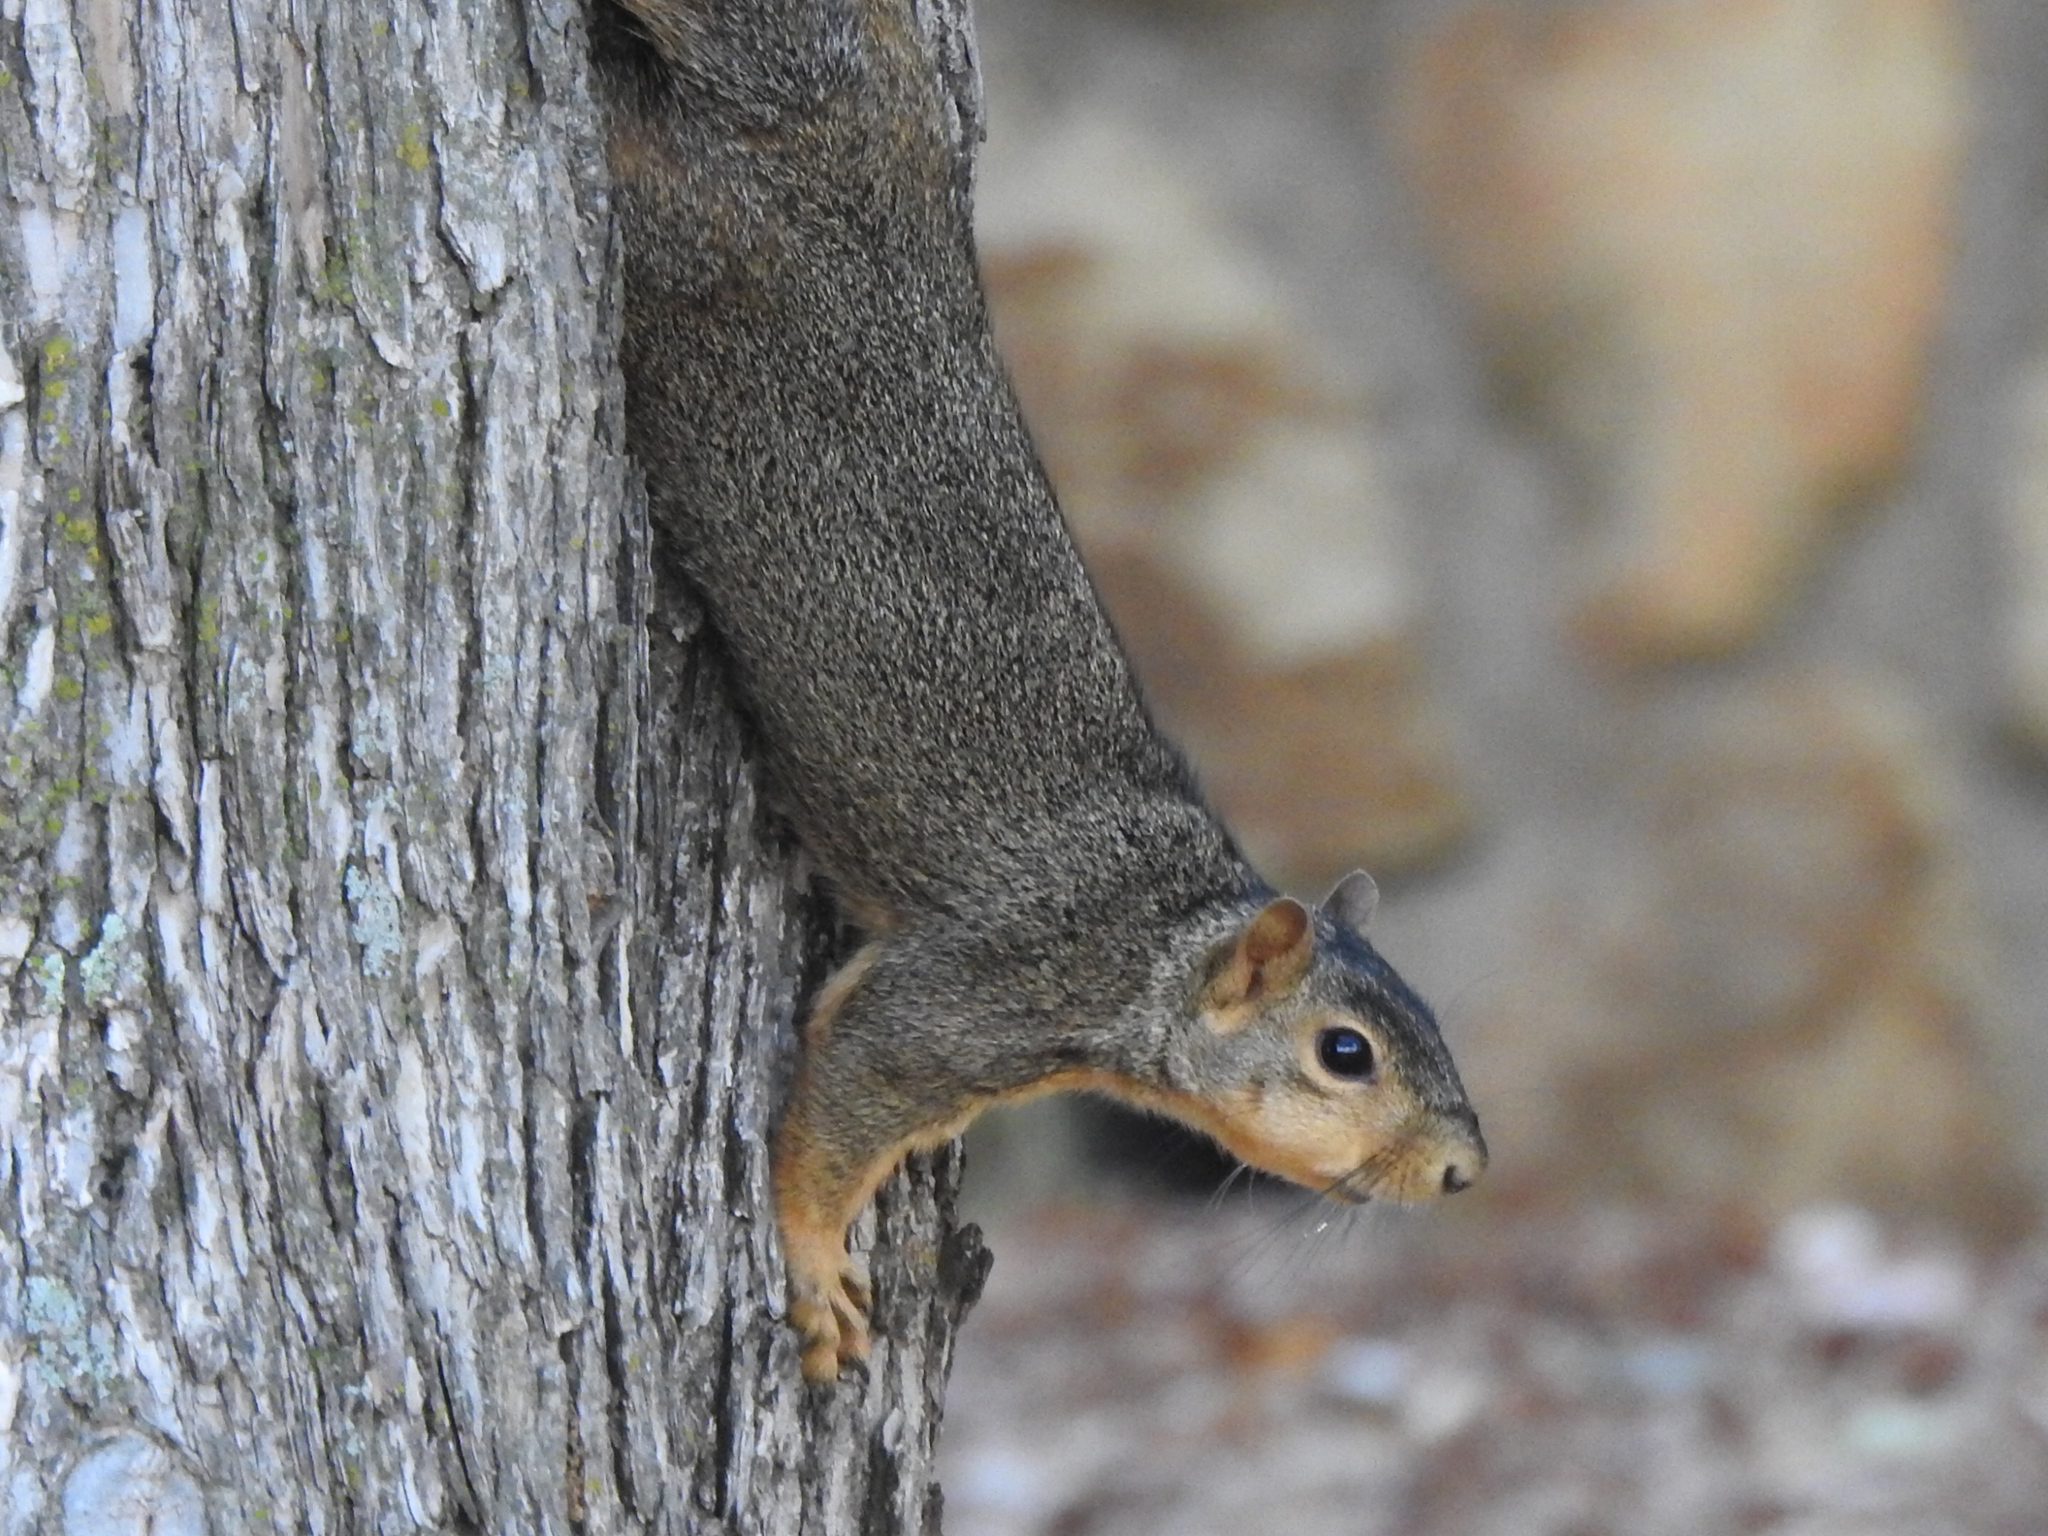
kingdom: Animalia
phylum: Chordata
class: Mammalia
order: Rodentia
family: Sciuridae
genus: Sciurus
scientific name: Sciurus niger
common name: Fox squirrel
